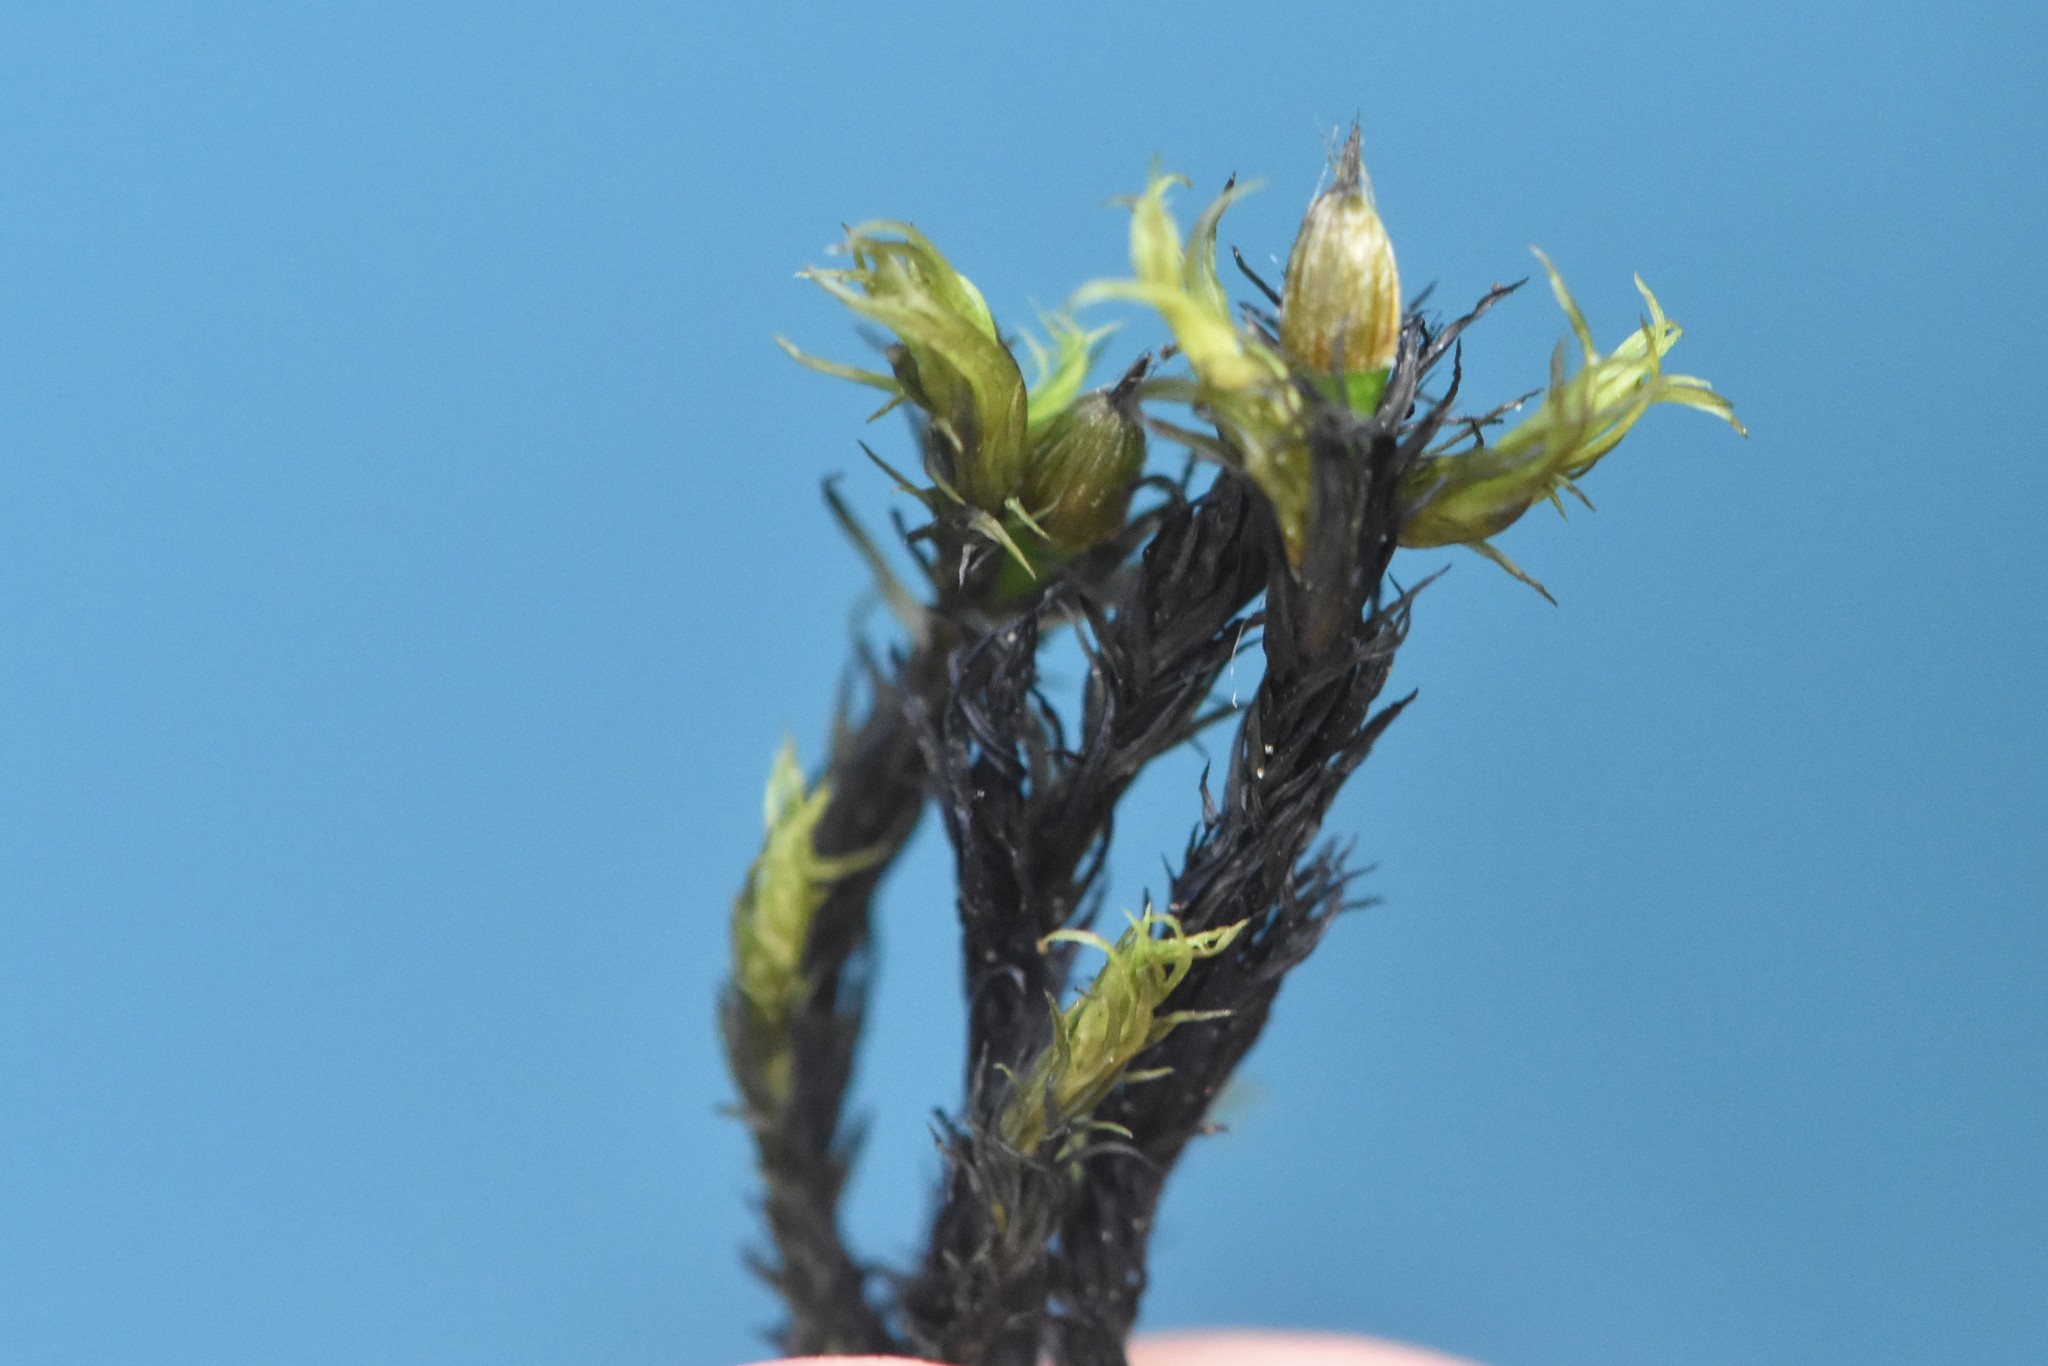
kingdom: Plantae
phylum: Bryophyta
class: Bryopsida
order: Orthotrichales
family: Orthotrichaceae
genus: Pulvigera
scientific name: Pulvigera papillosa
